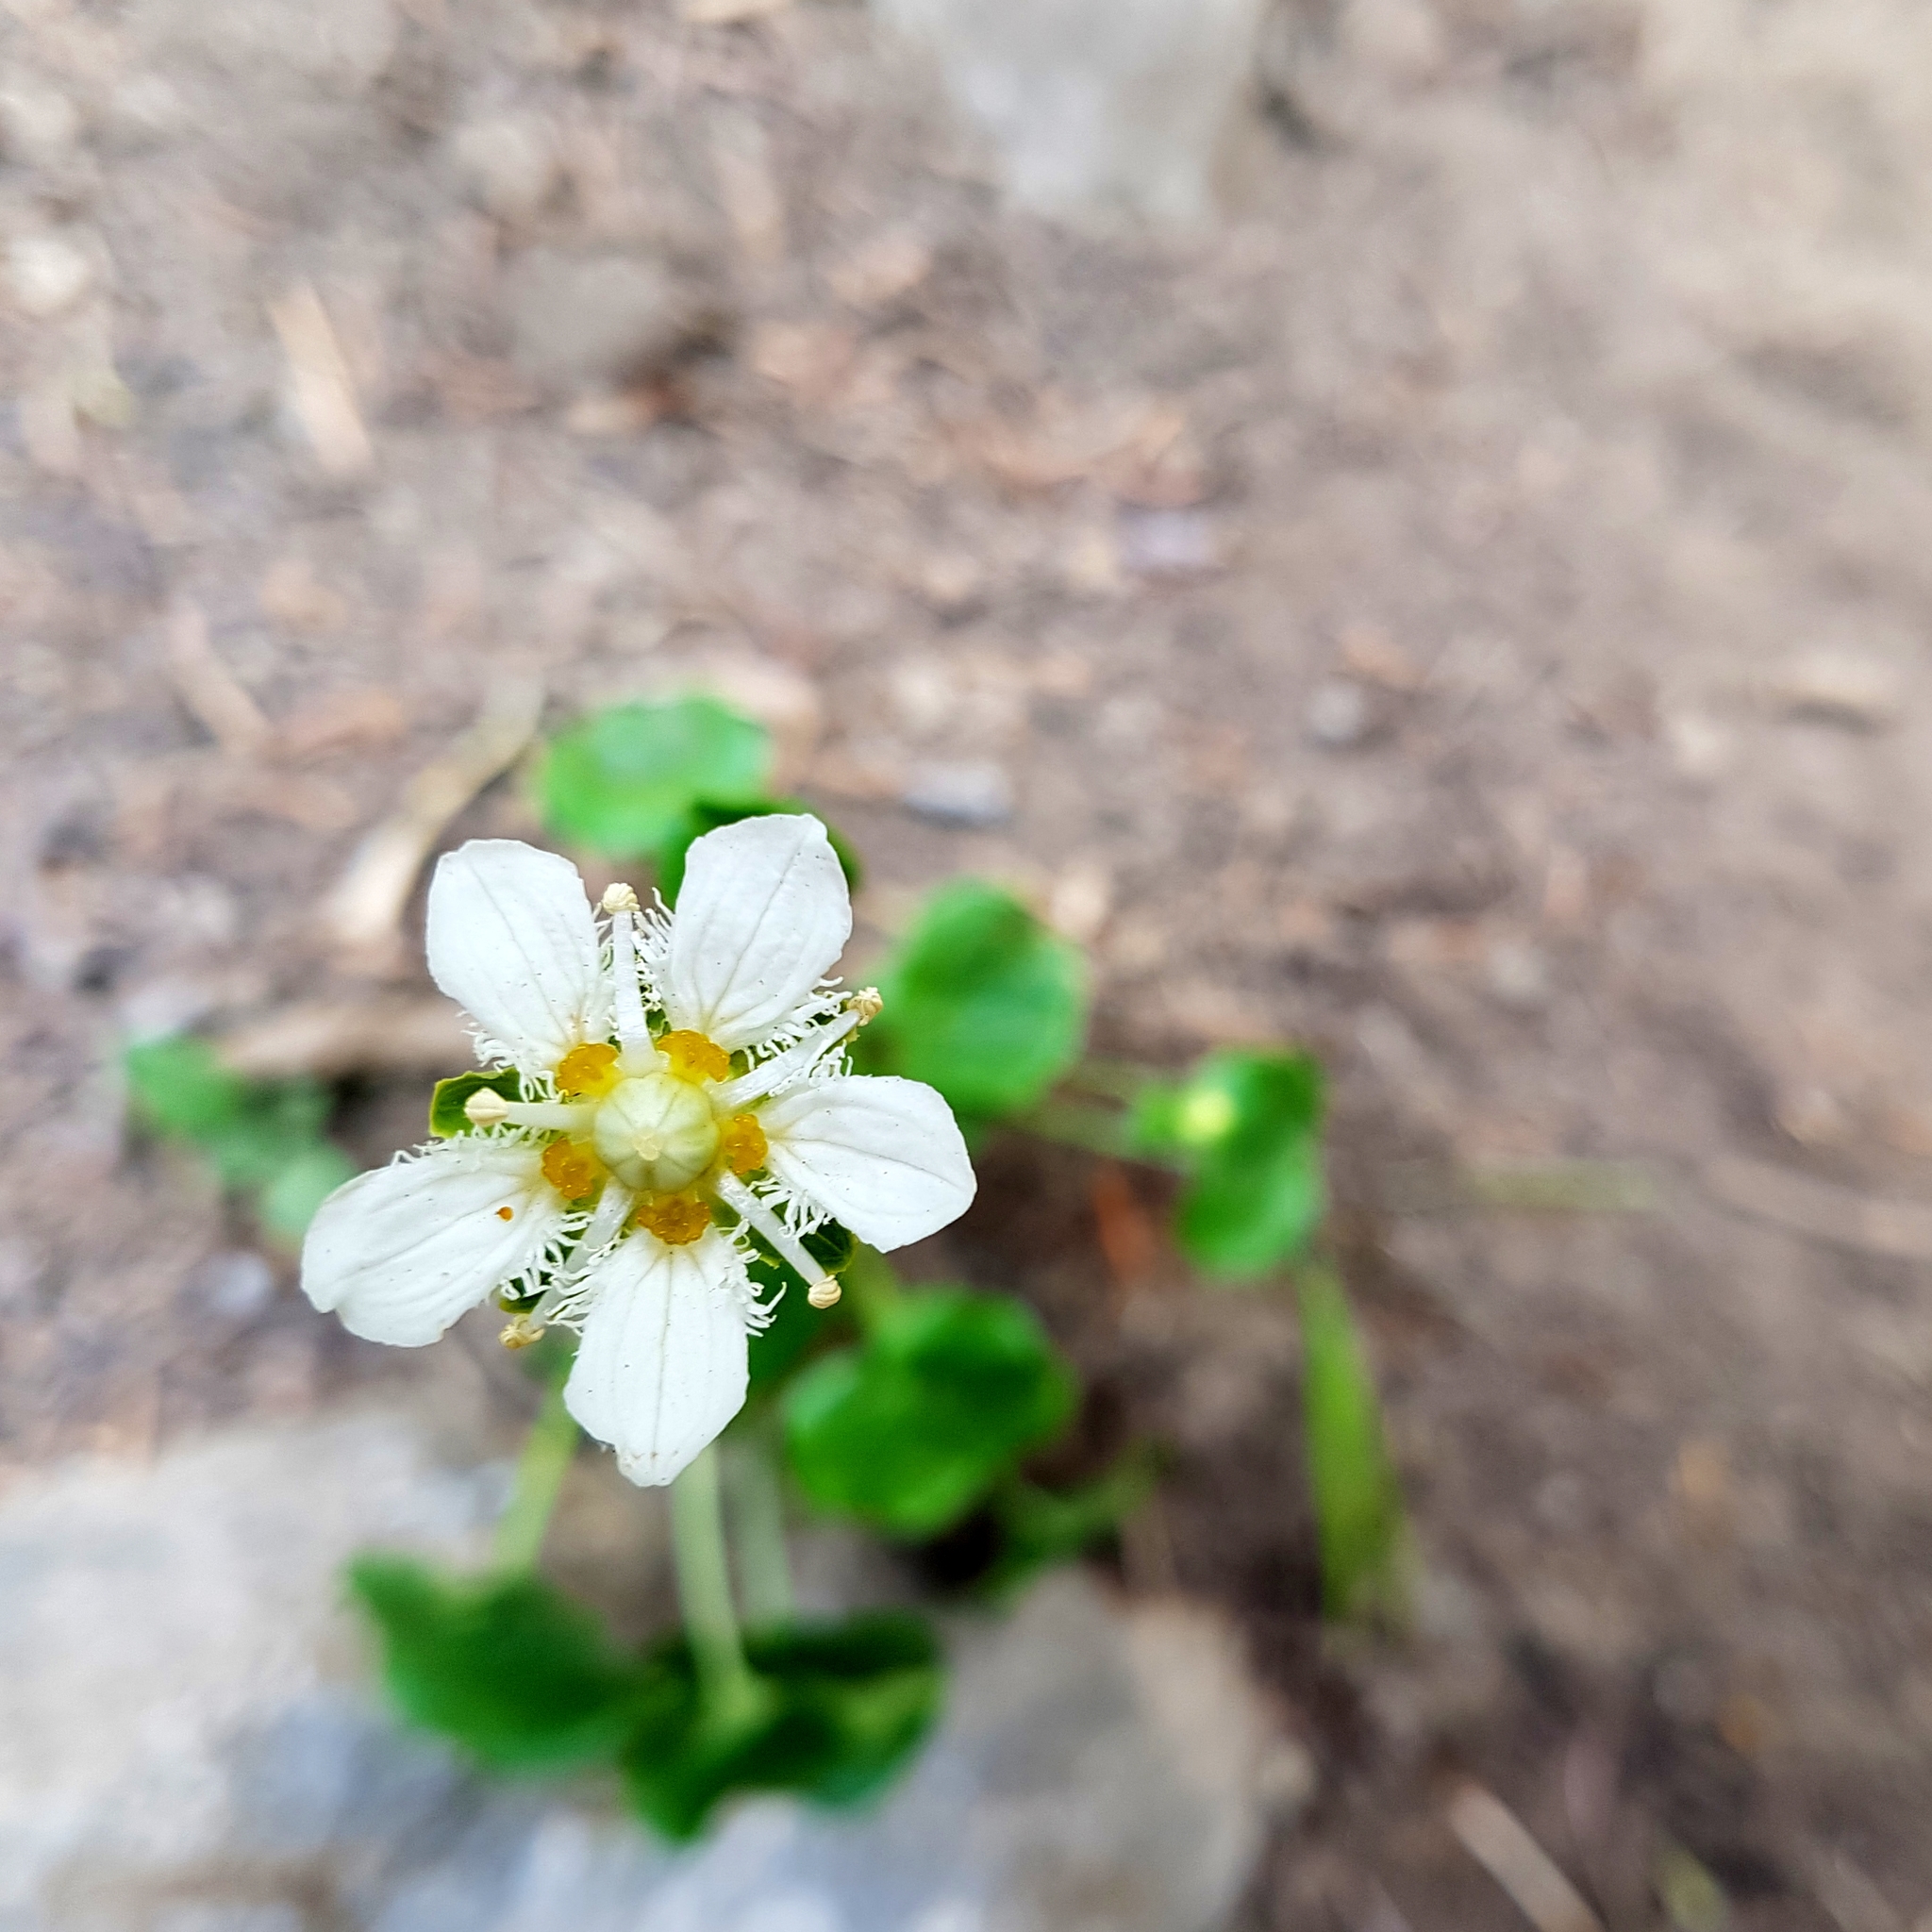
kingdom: Plantae
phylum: Tracheophyta
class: Magnoliopsida
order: Celastrales
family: Parnassiaceae
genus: Parnassia
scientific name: Parnassia fimbriata
